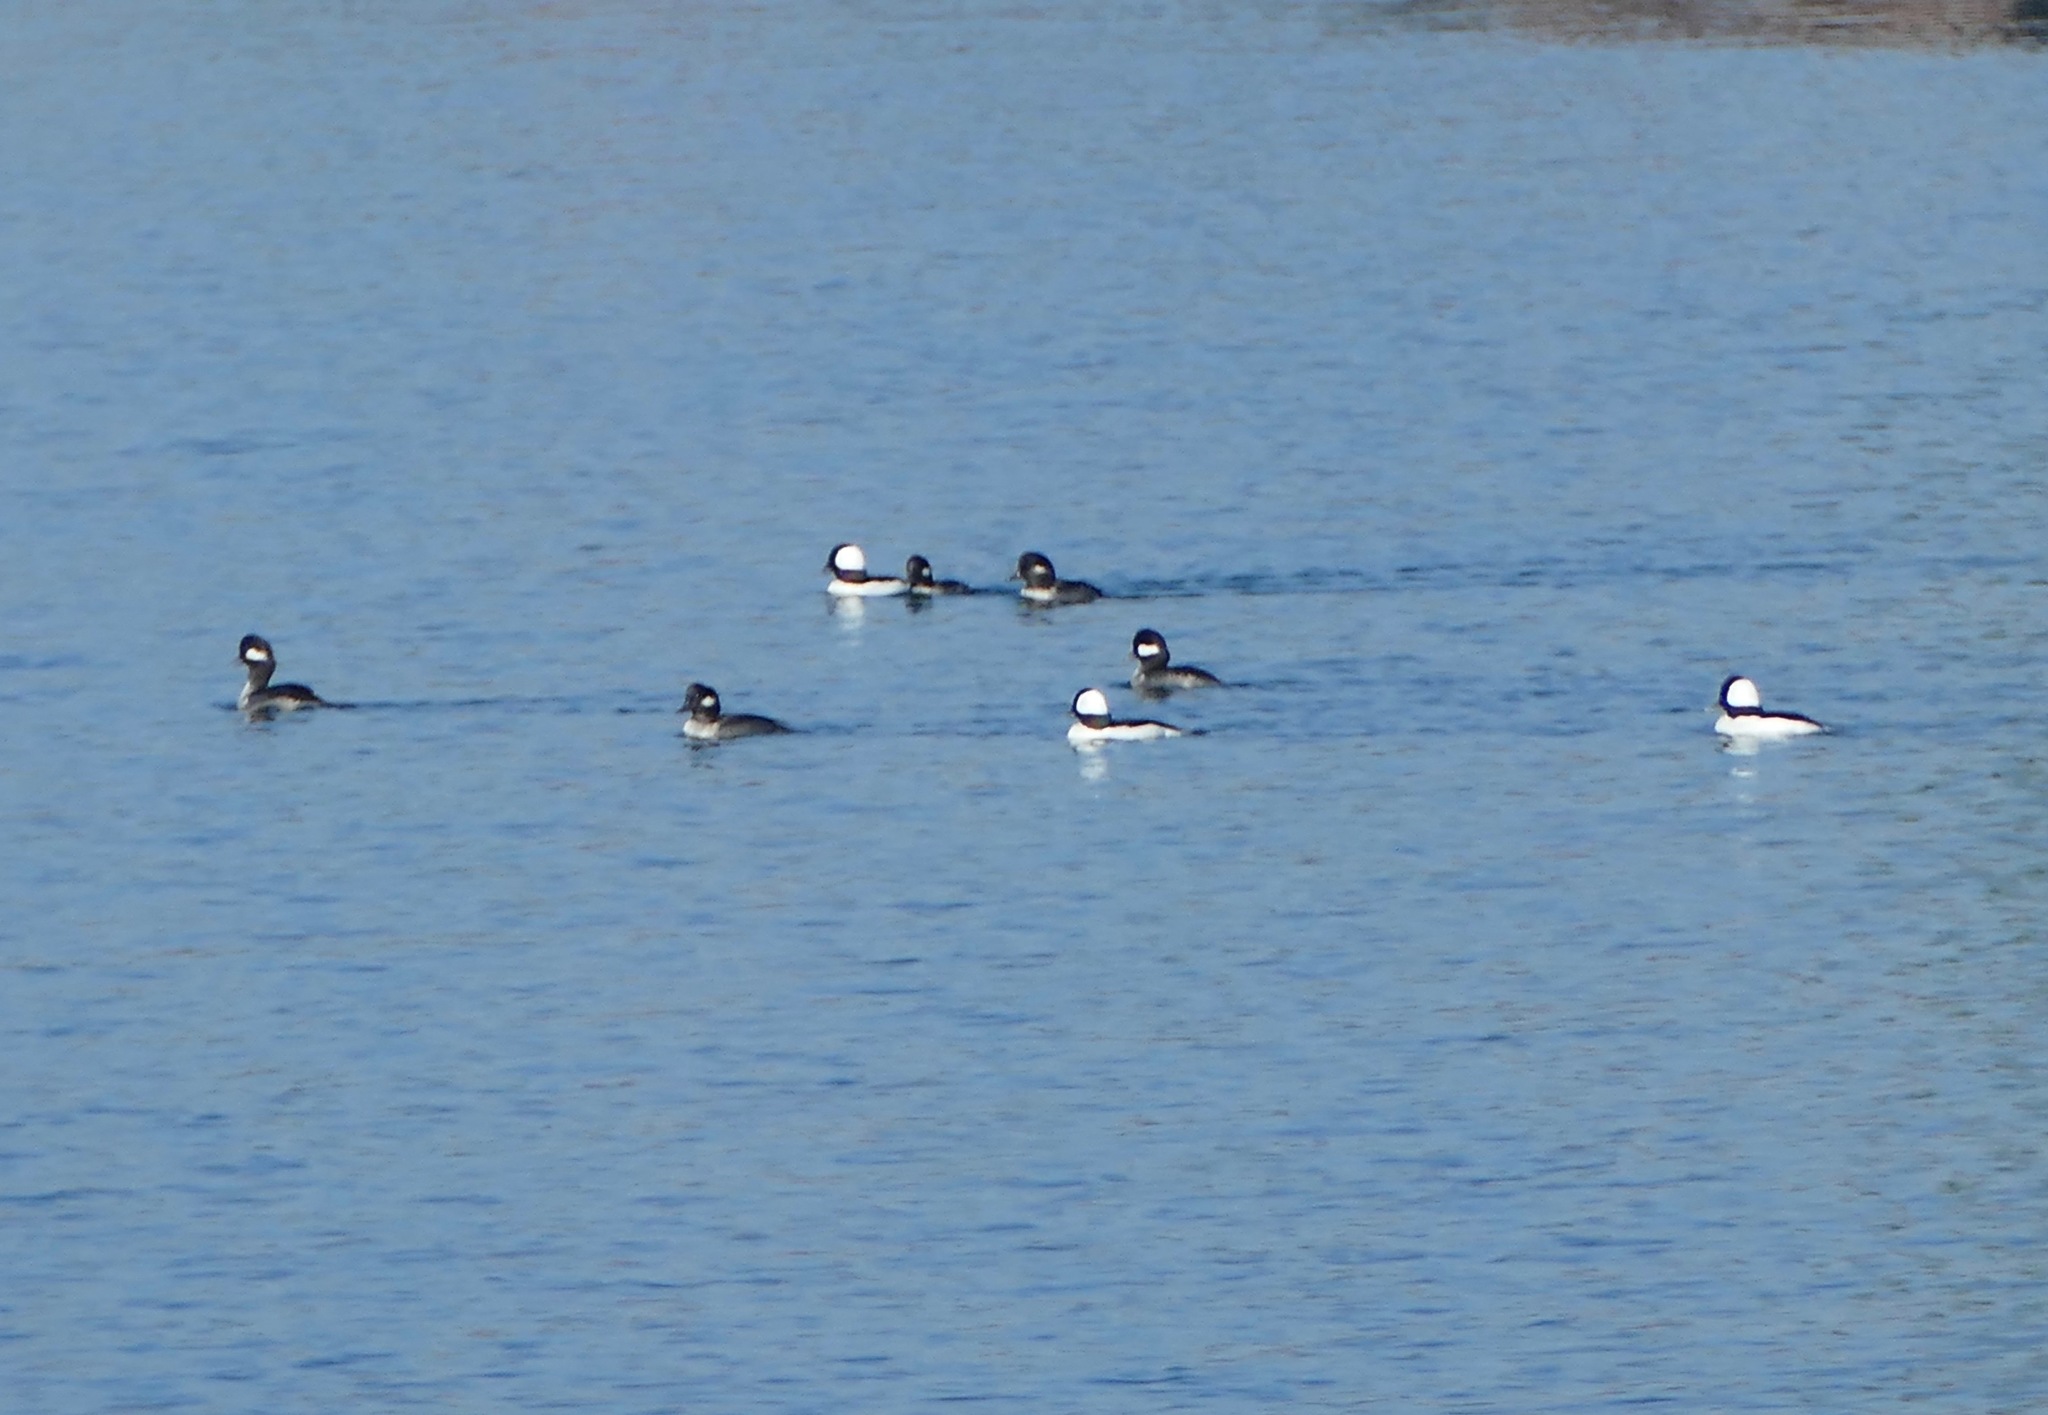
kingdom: Animalia
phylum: Chordata
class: Aves
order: Anseriformes
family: Anatidae
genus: Bucephala
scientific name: Bucephala albeola
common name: Bufflehead
